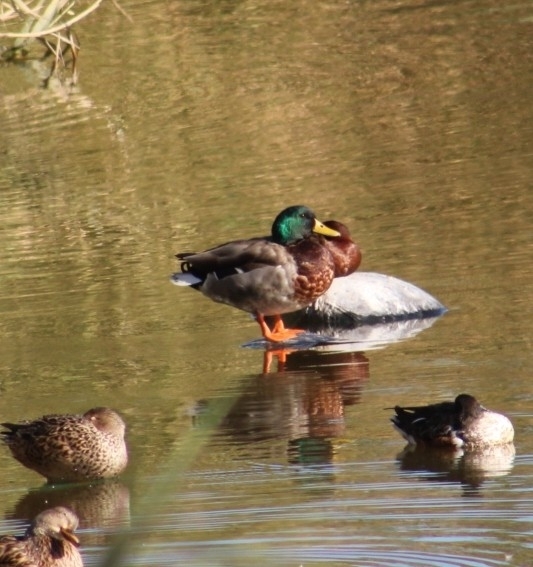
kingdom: Animalia
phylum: Chordata
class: Aves
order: Anseriformes
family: Anatidae
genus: Anas
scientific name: Anas platyrhynchos
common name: Mallard
